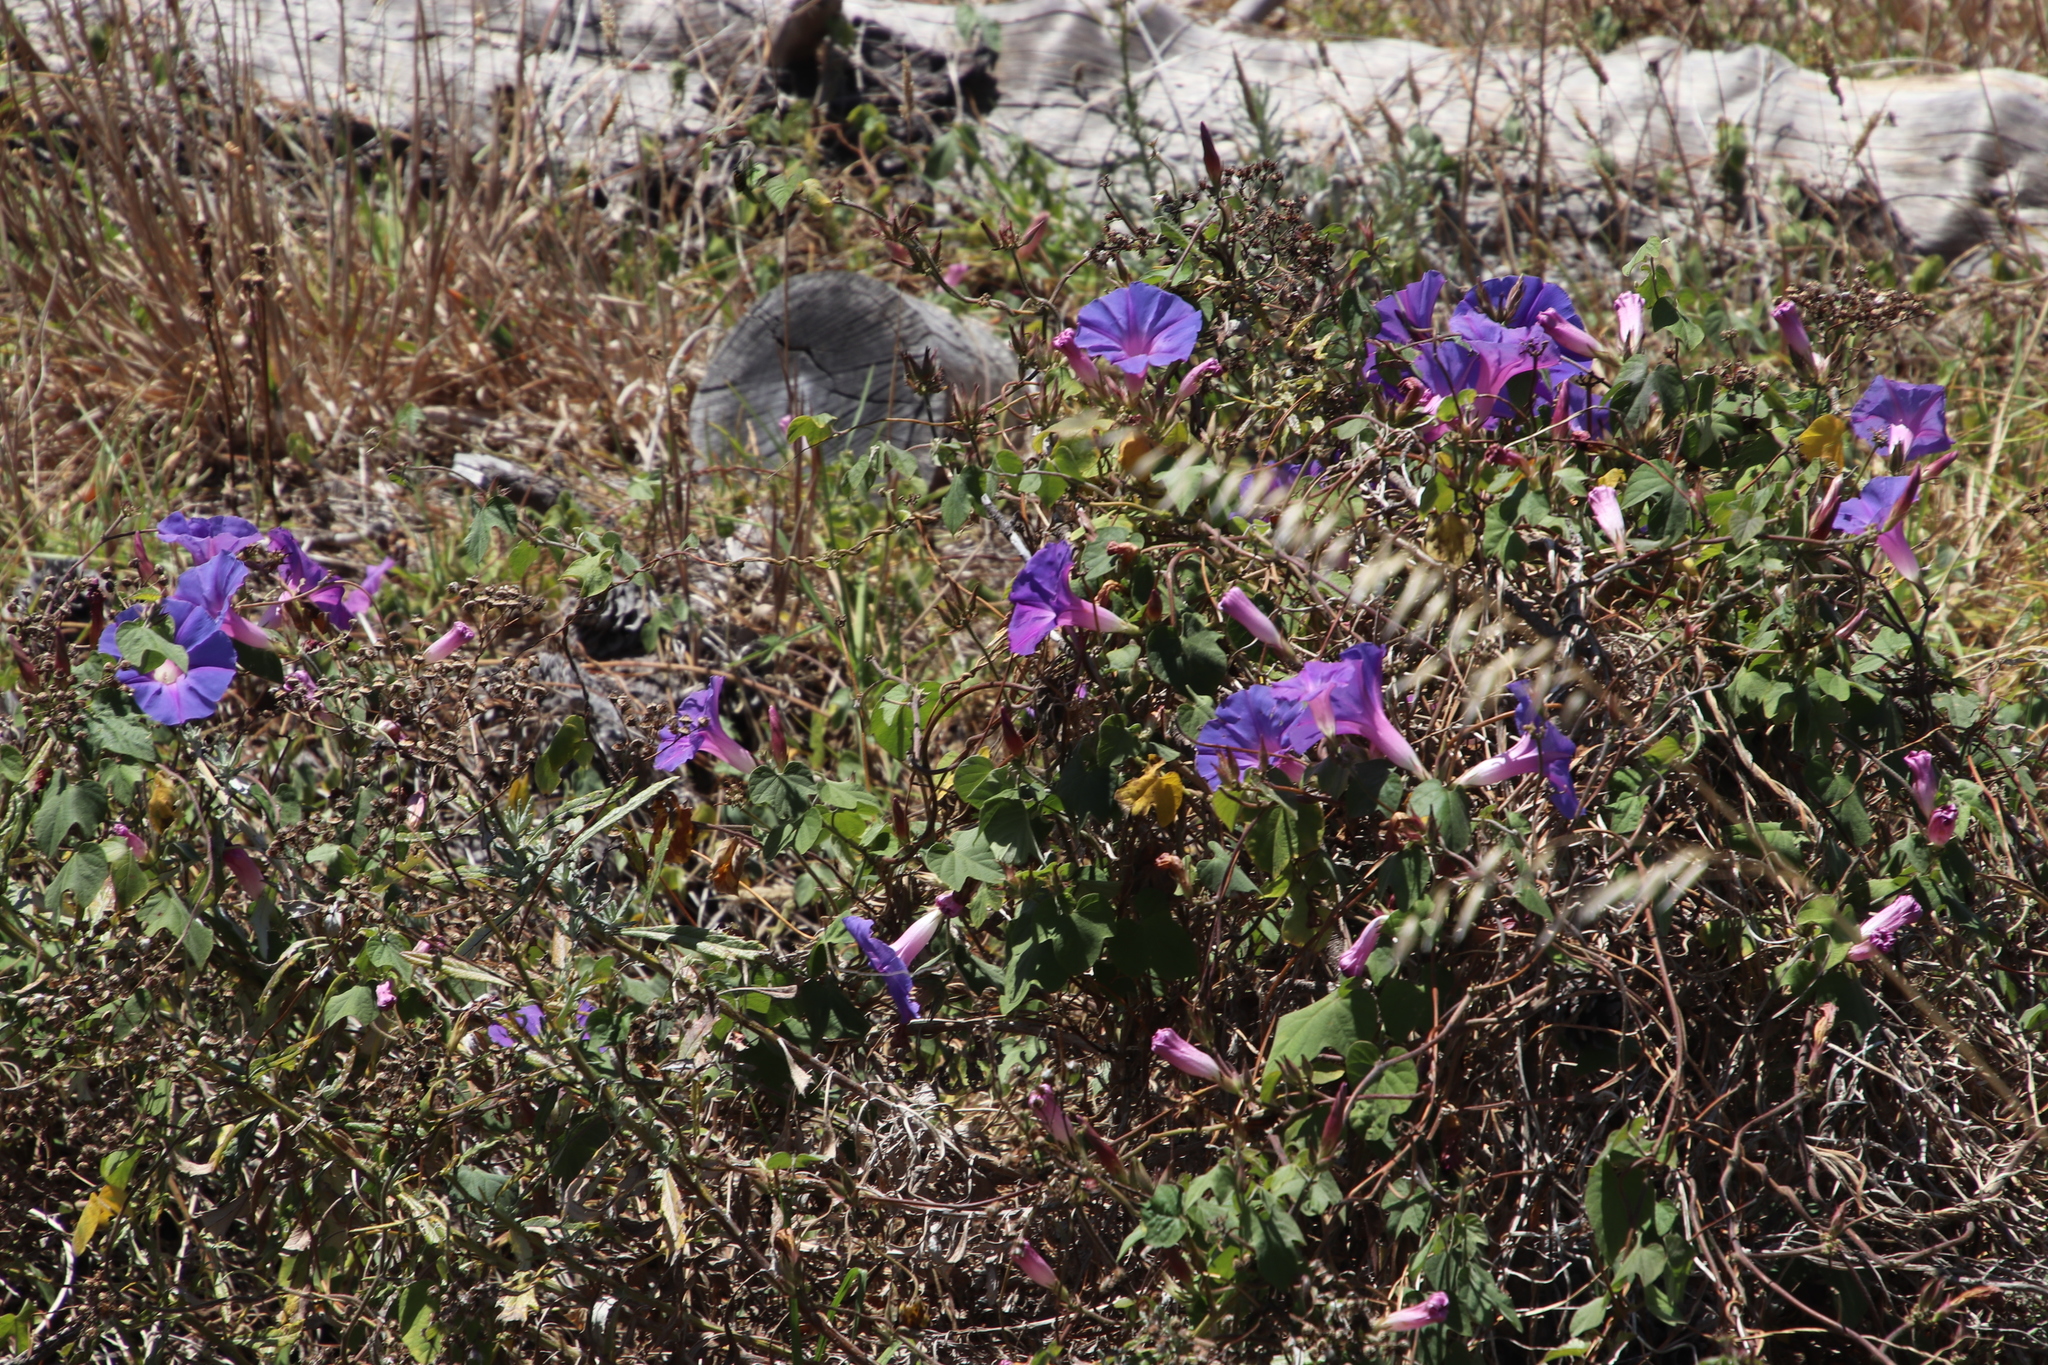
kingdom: Plantae
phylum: Tracheophyta
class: Magnoliopsida
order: Solanales
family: Convolvulaceae
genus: Ipomoea
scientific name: Ipomoea indica
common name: Blue dawnflower
